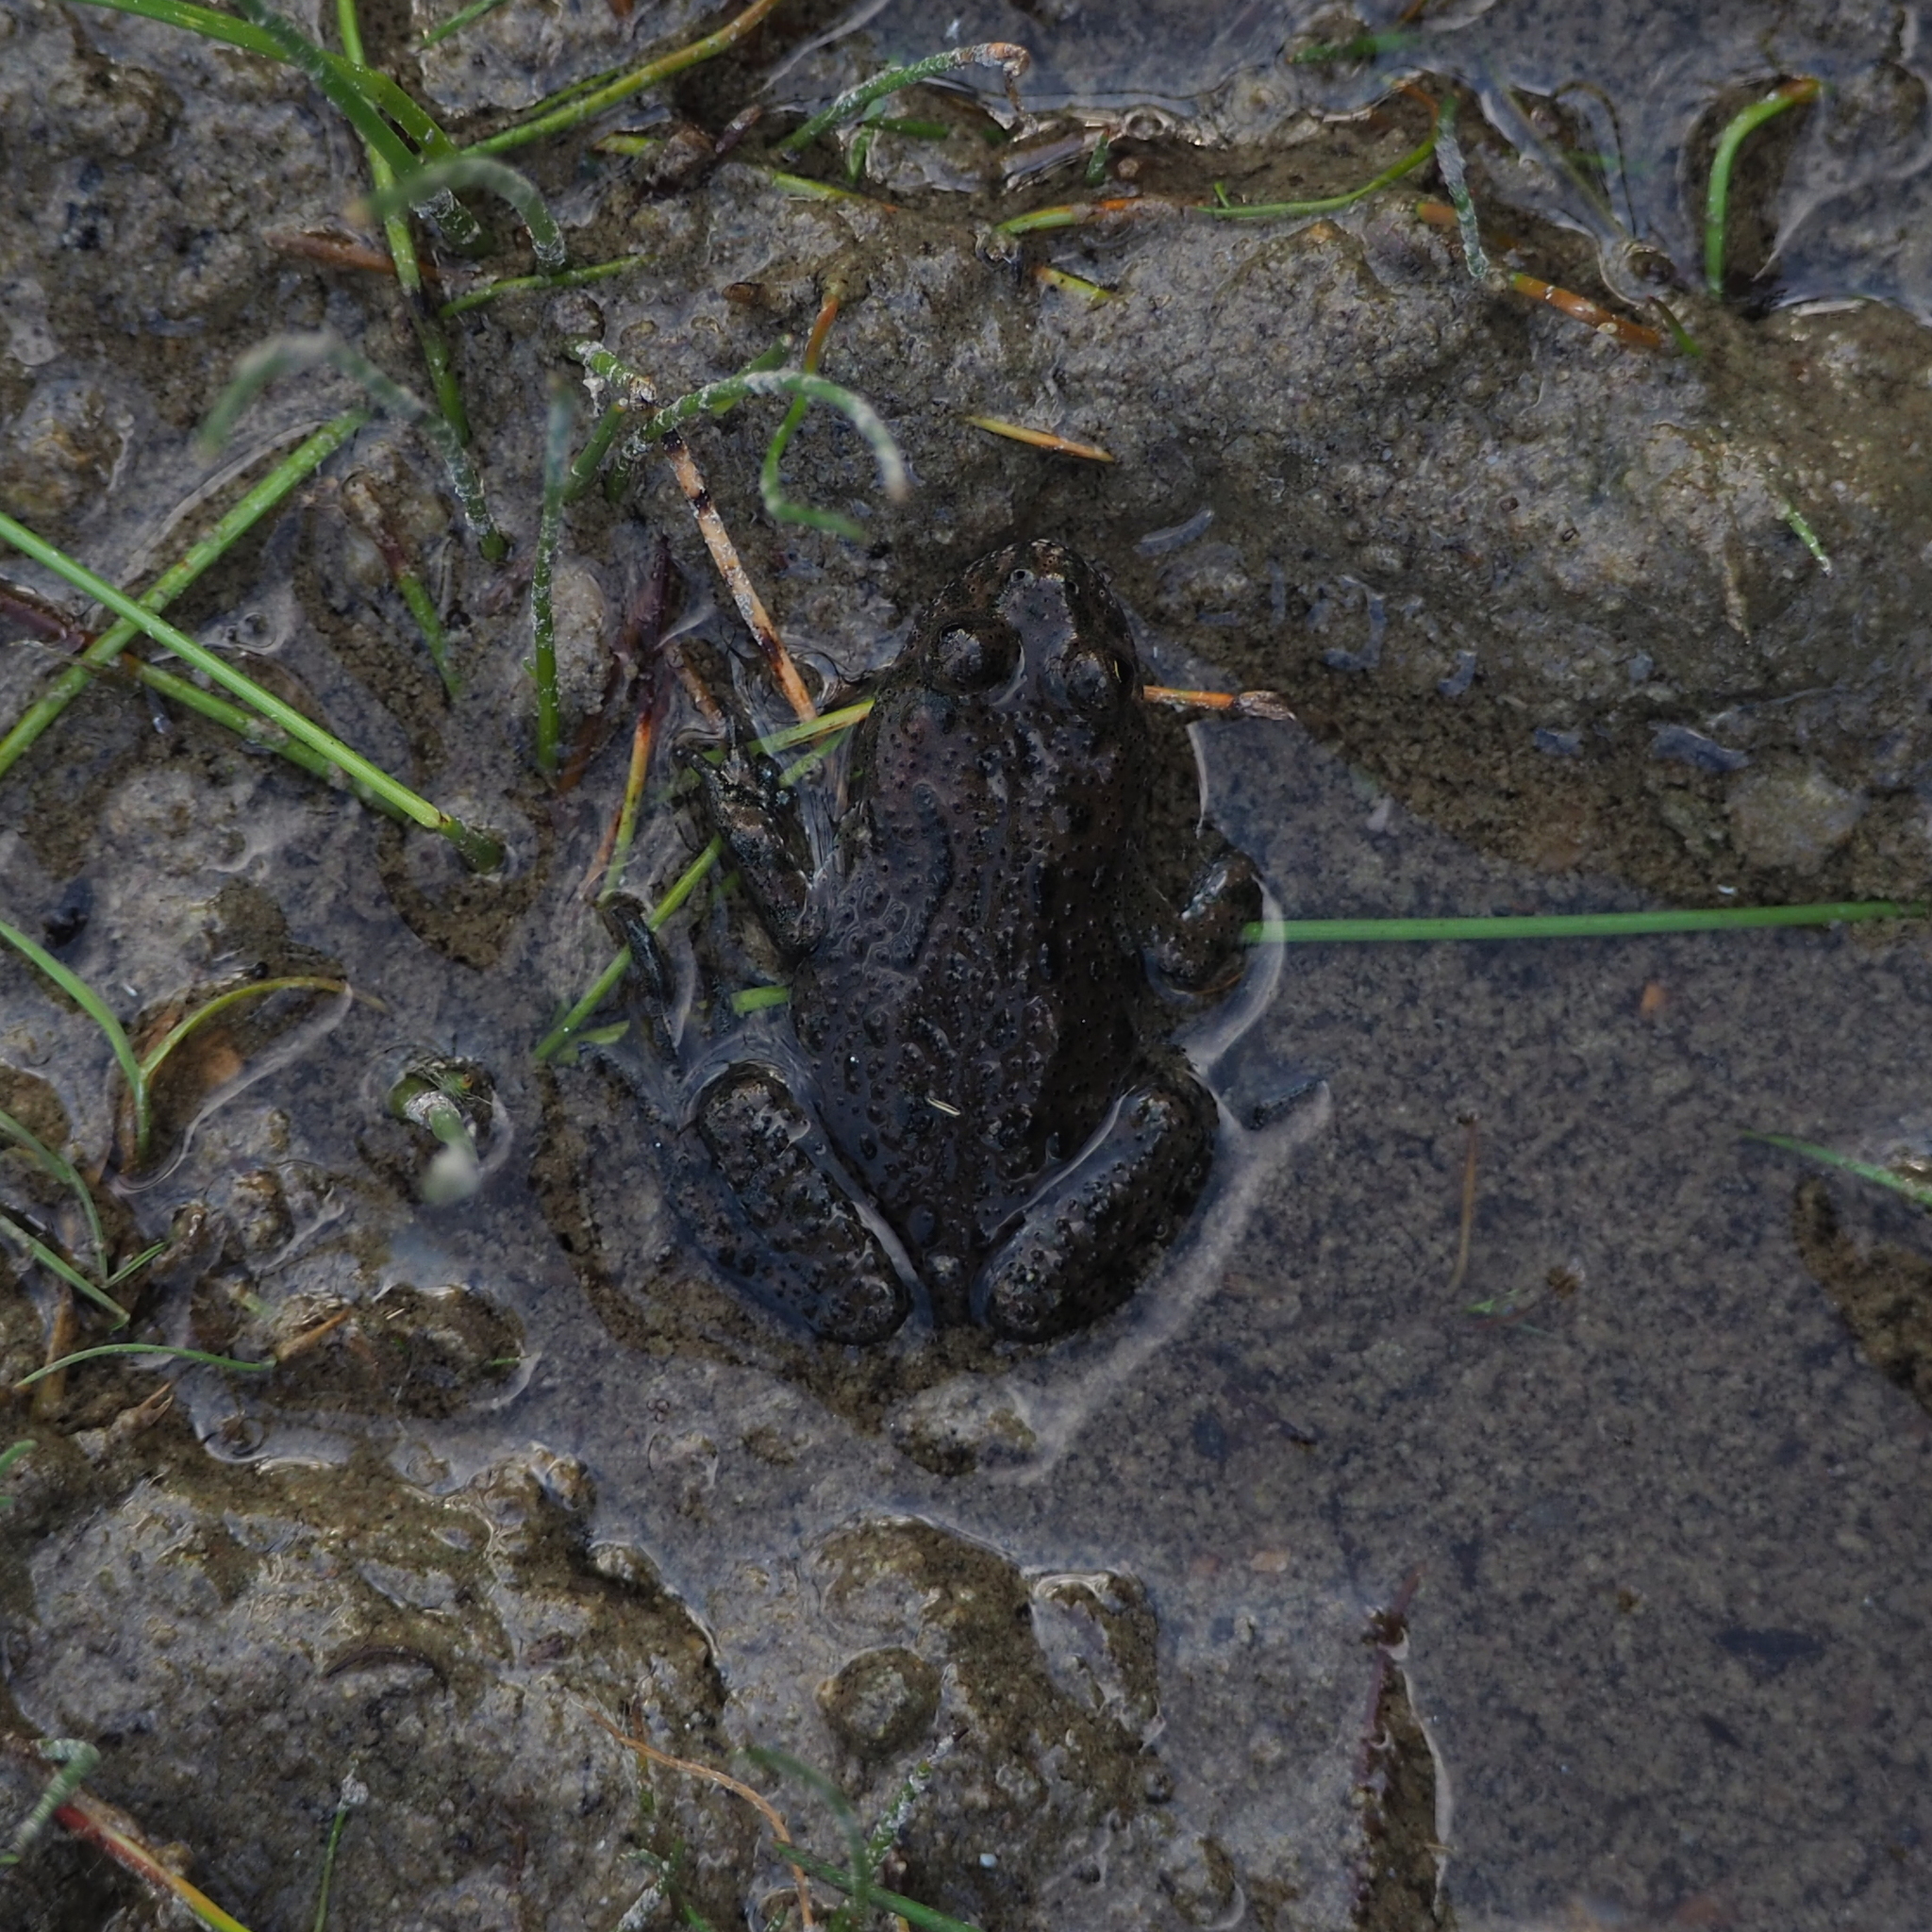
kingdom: Animalia
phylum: Chordata
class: Amphibia
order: Anura
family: Bombinatoridae
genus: Bombina
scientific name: Bombina bombina
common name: Fire-bellied toad
